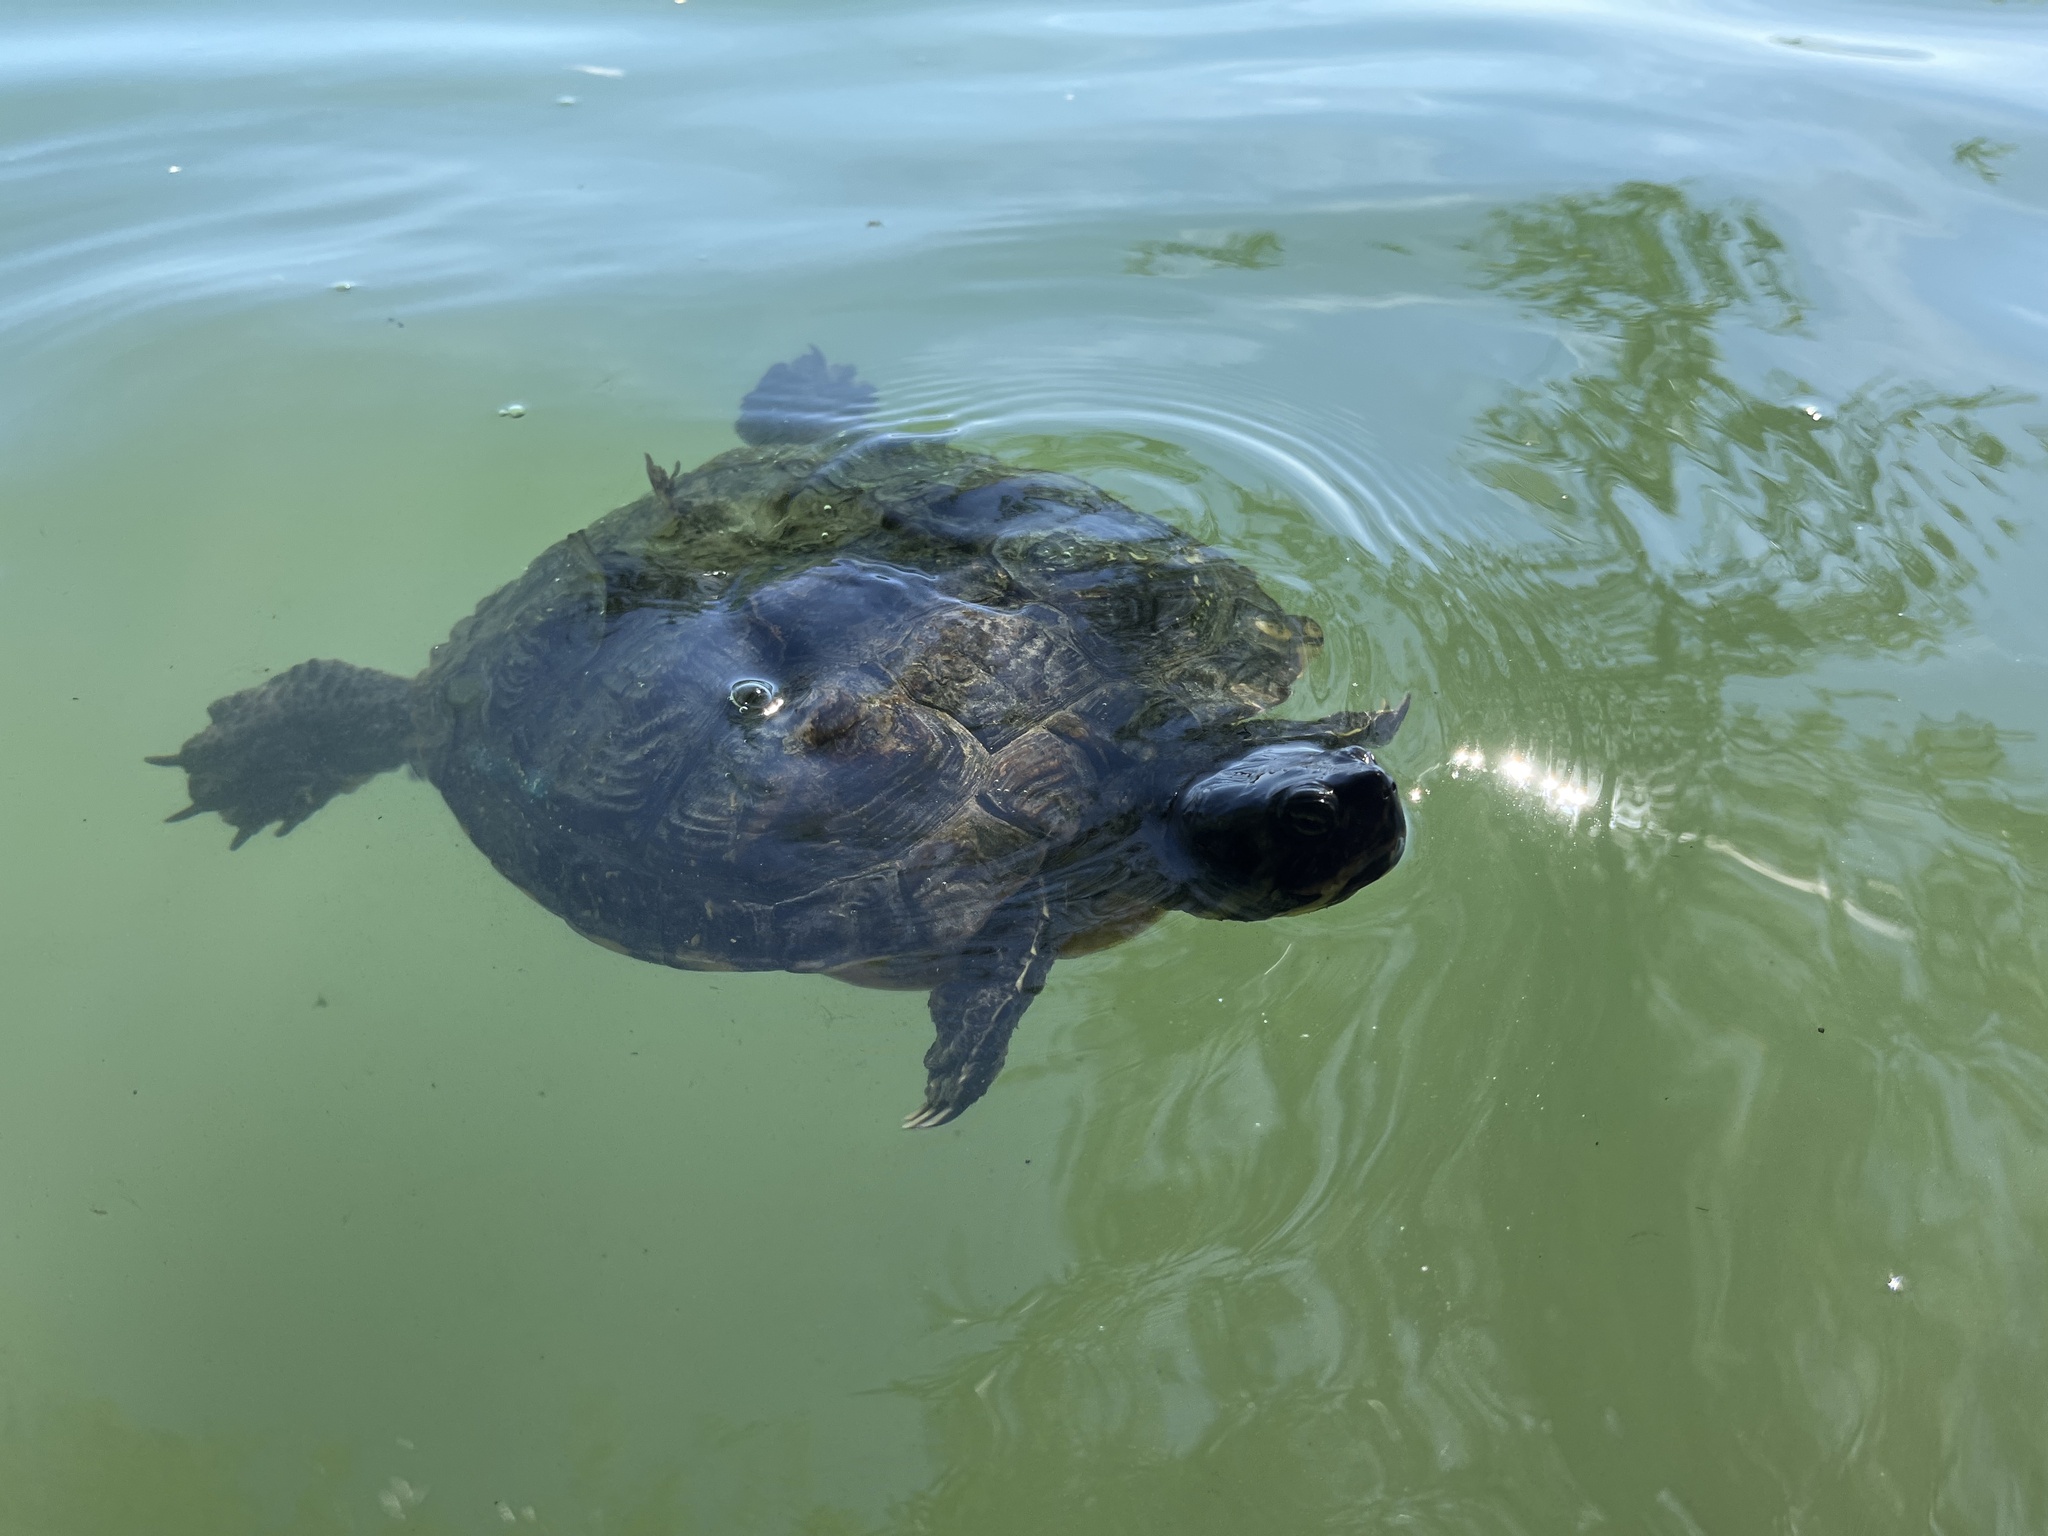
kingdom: Animalia
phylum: Chordata
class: Testudines
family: Emydidae
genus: Trachemys
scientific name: Trachemys scripta
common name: Slider
